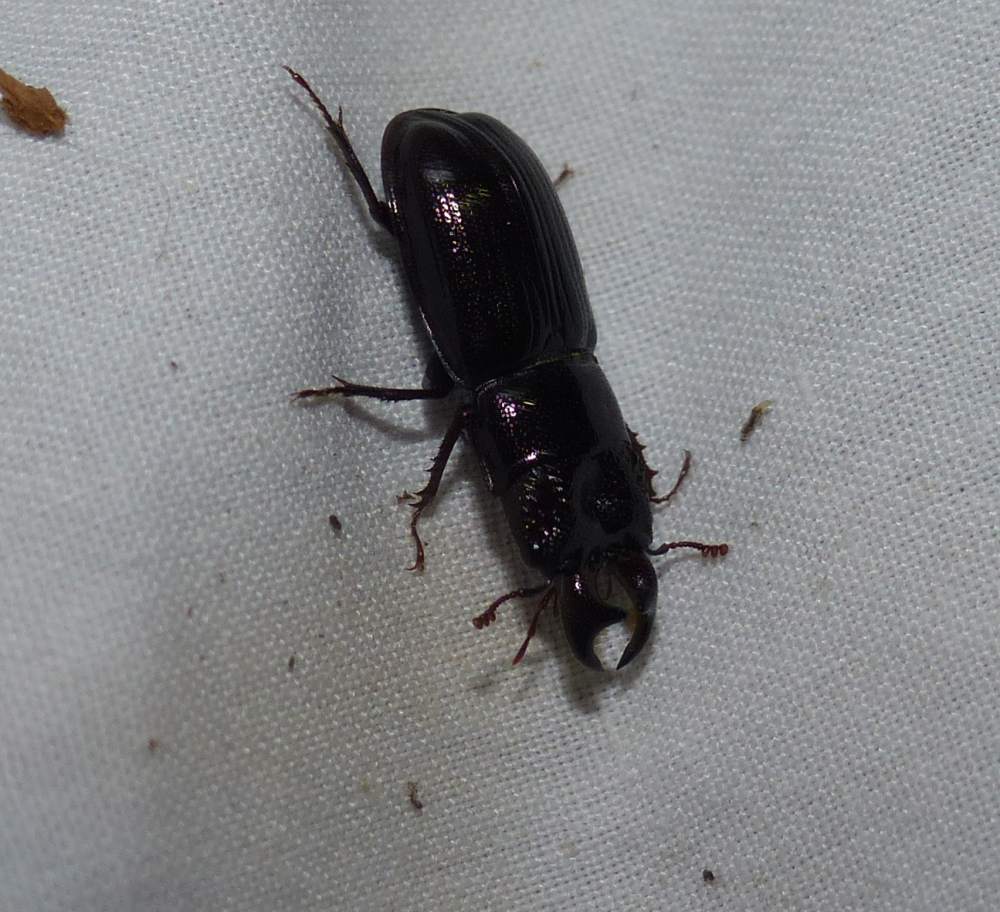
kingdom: Animalia
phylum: Arthropoda
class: Insecta
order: Coleoptera
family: Lucanidae
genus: Ceruchus
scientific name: Ceruchus piceus
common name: Red-rot decay stag beetle
